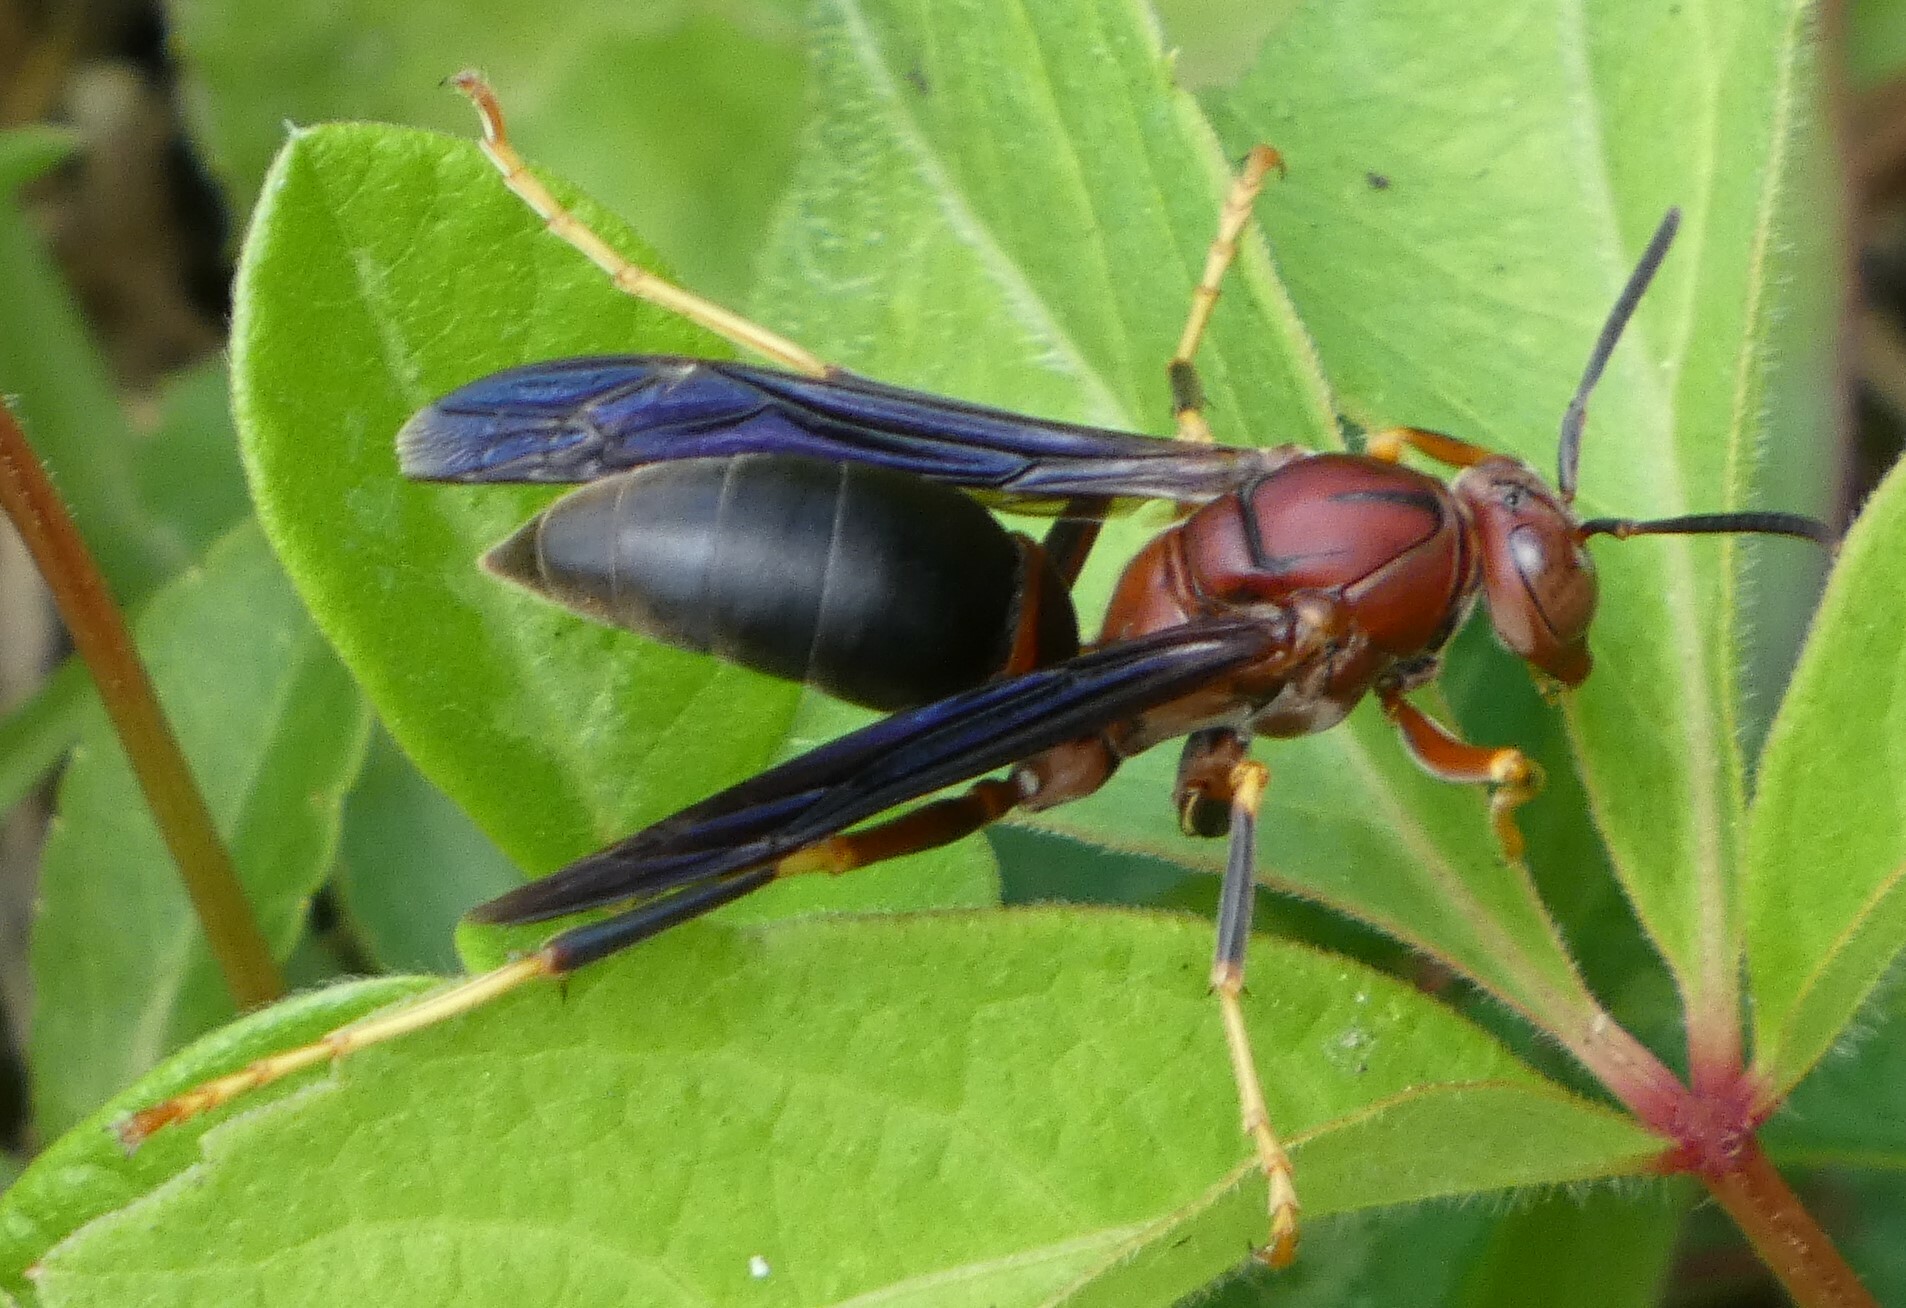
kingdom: Animalia
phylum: Arthropoda
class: Insecta
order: Hymenoptera
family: Eumenidae
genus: Polistes
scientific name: Polistes metricus
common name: Metric paper wasp
